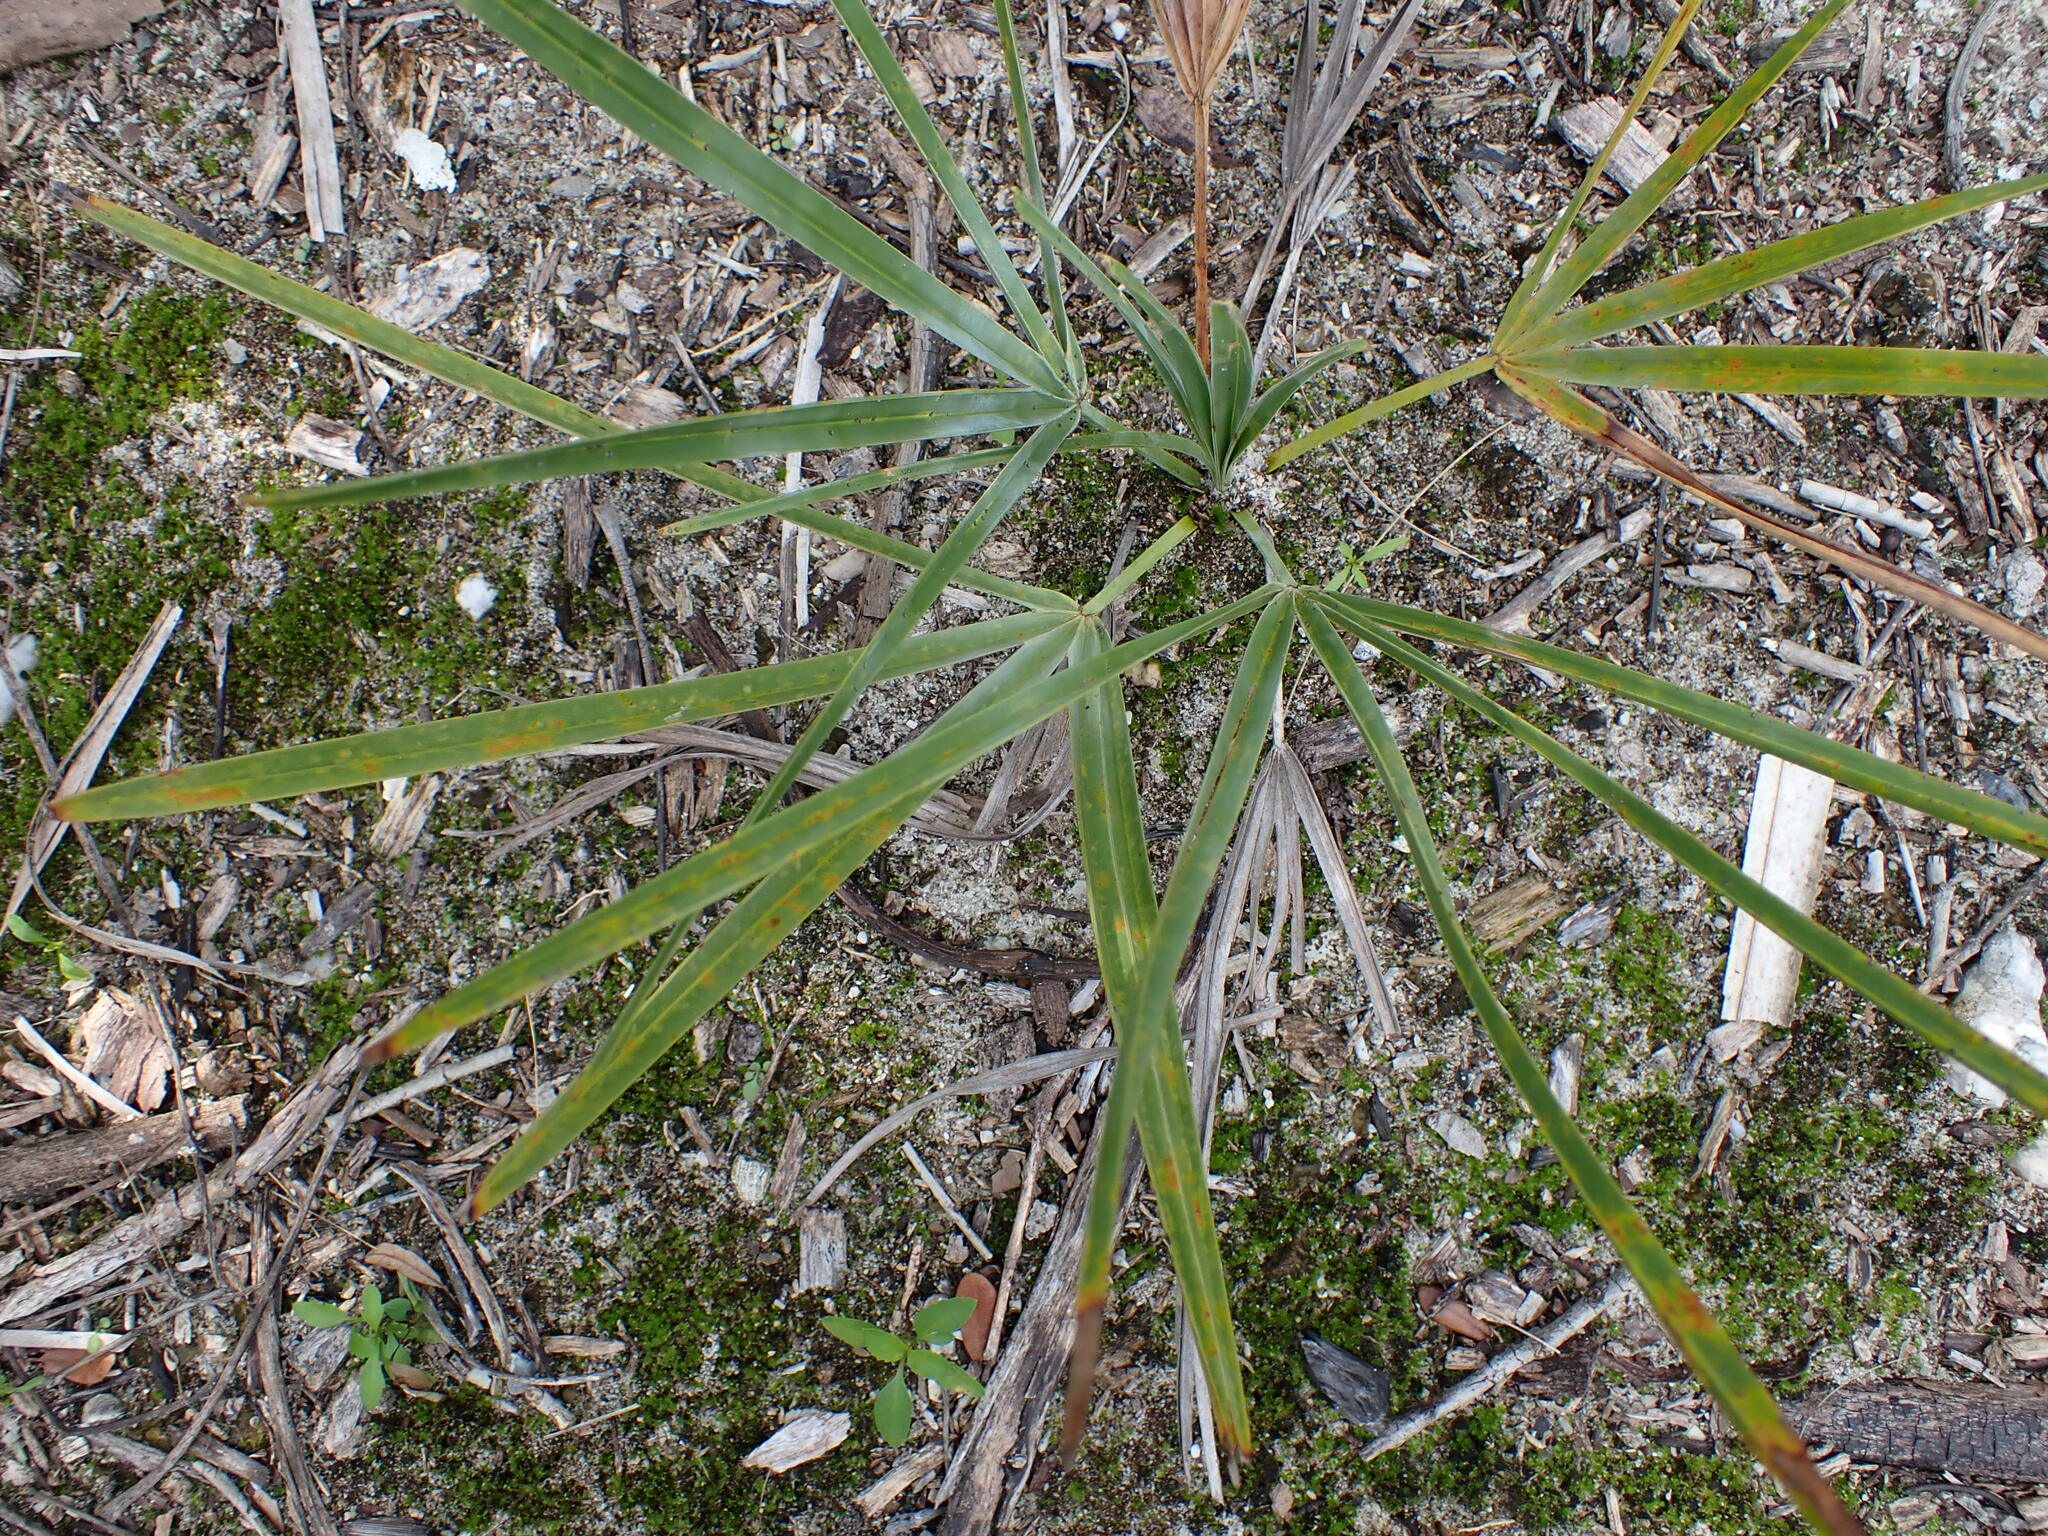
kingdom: Plantae
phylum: Tracheophyta
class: Liliopsida
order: Arecales
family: Arecaceae
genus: Serenoa
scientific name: Serenoa repens
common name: Saw-palmetto
